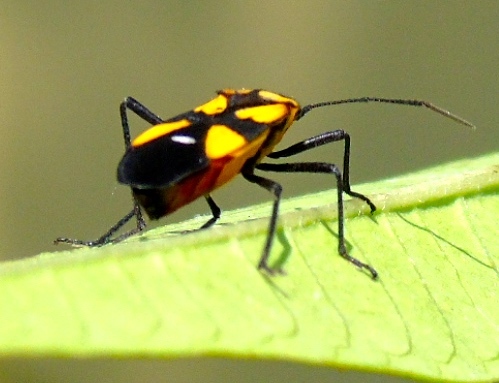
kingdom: Animalia
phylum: Arthropoda
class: Insecta
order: Hemiptera
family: Lygaeidae
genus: Oncopeltus
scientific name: Oncopeltus sexmaculatus
